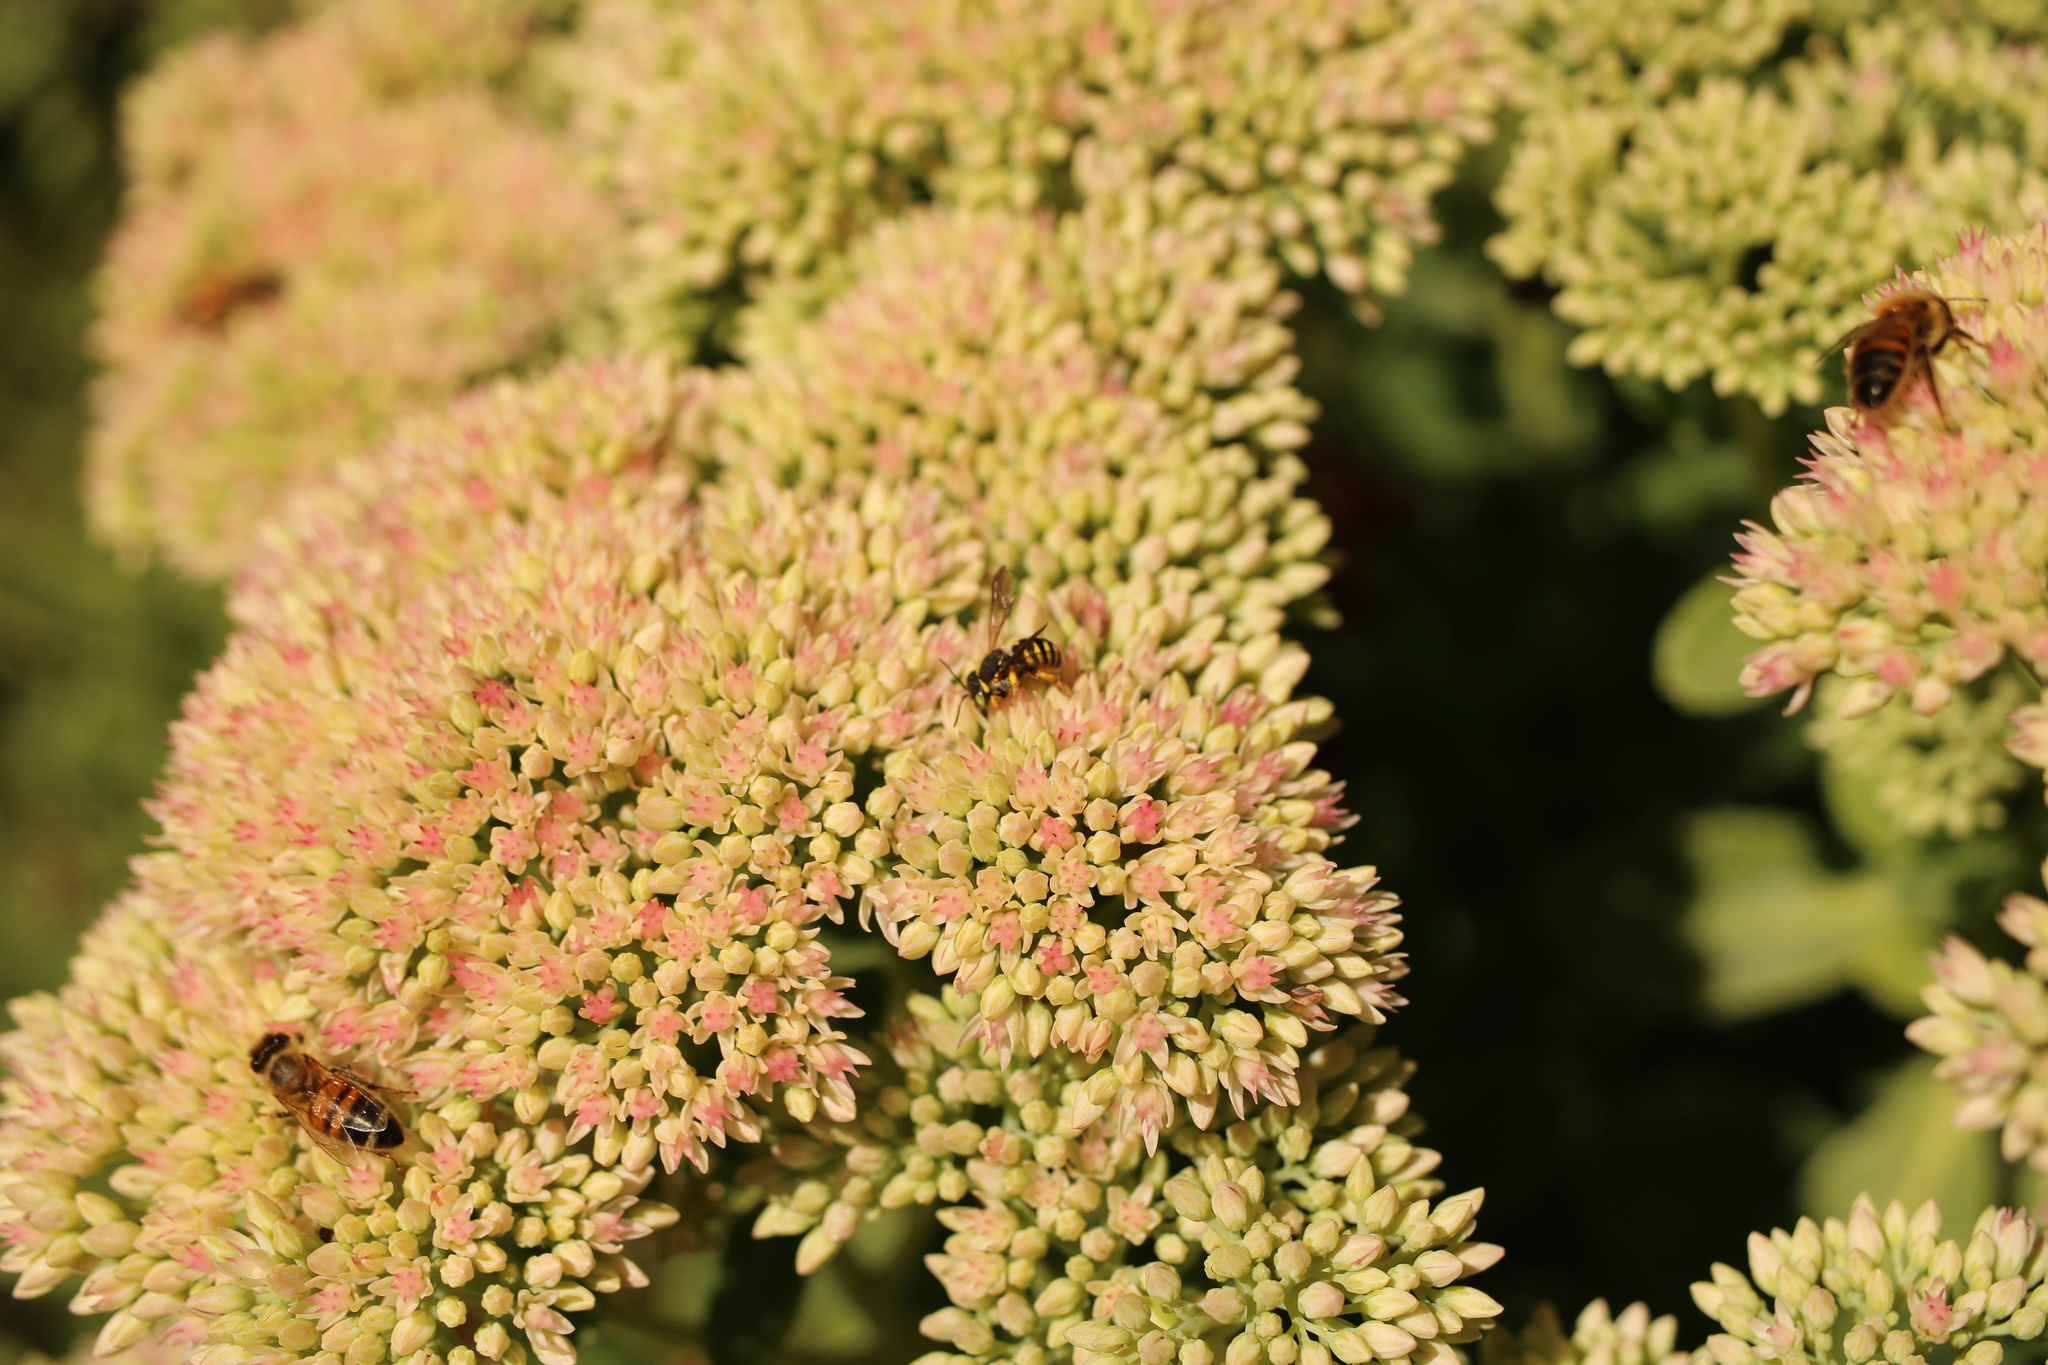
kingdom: Animalia
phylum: Arthropoda
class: Insecta
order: Hymenoptera
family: Megachilidae
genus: Anthidium
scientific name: Anthidium oblongatum
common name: Oblong wool carder bee
